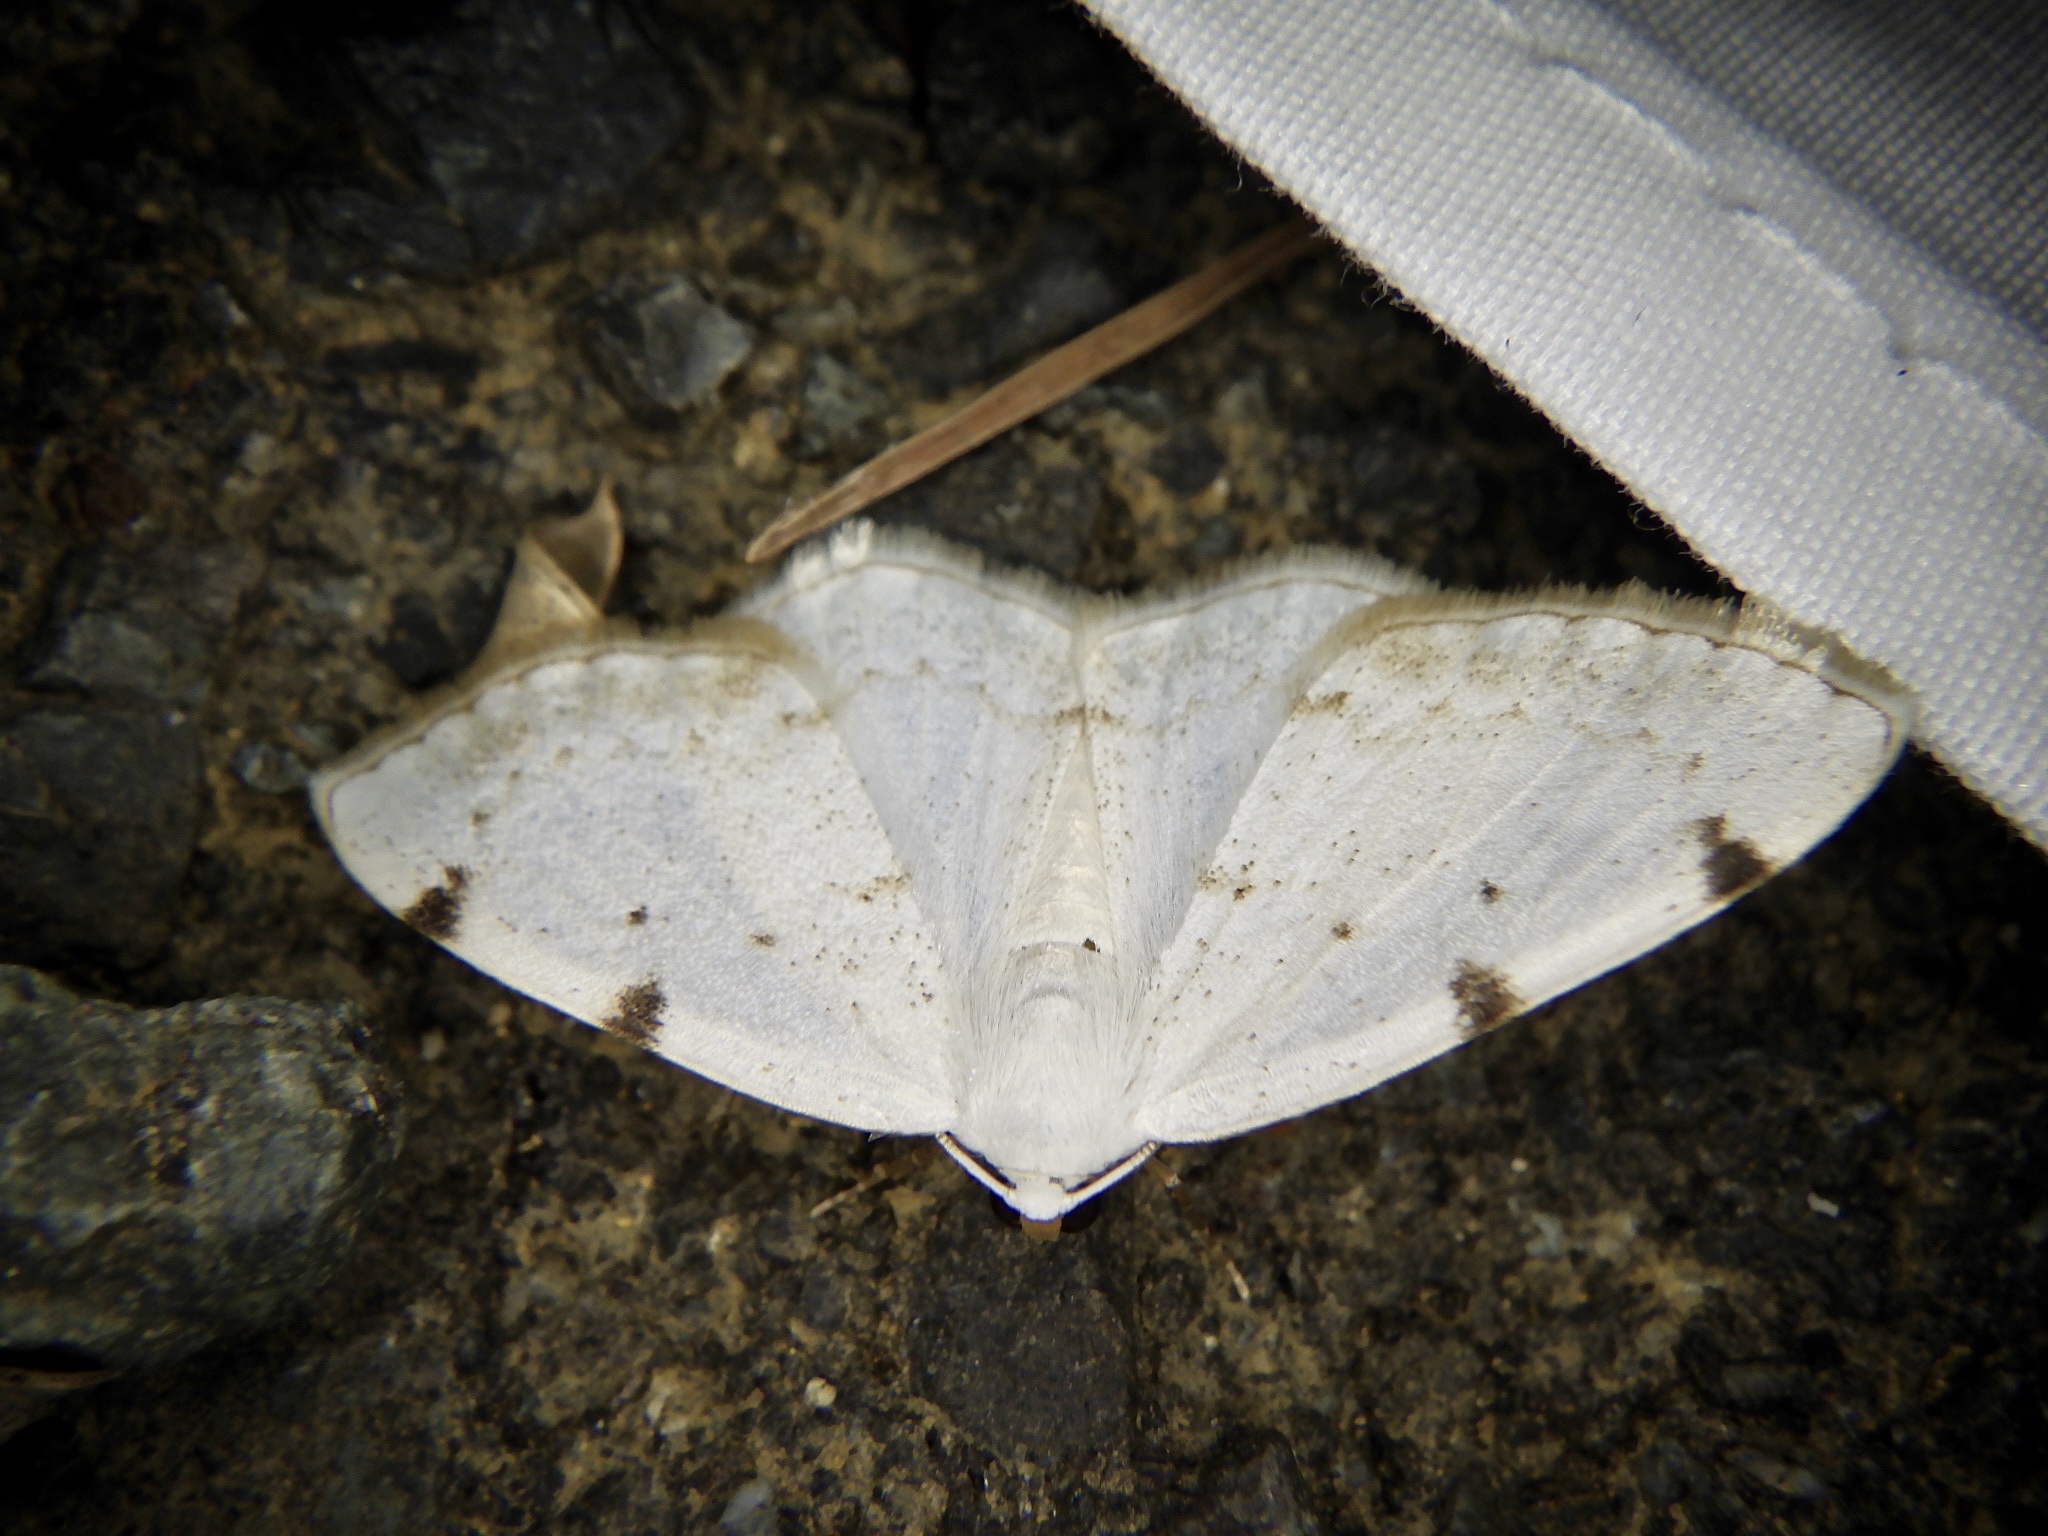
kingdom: Animalia
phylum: Arthropoda
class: Insecta
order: Lepidoptera
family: Geometridae
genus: Lomographa
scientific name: Lomographa bimaculata
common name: White-pinion spotted
